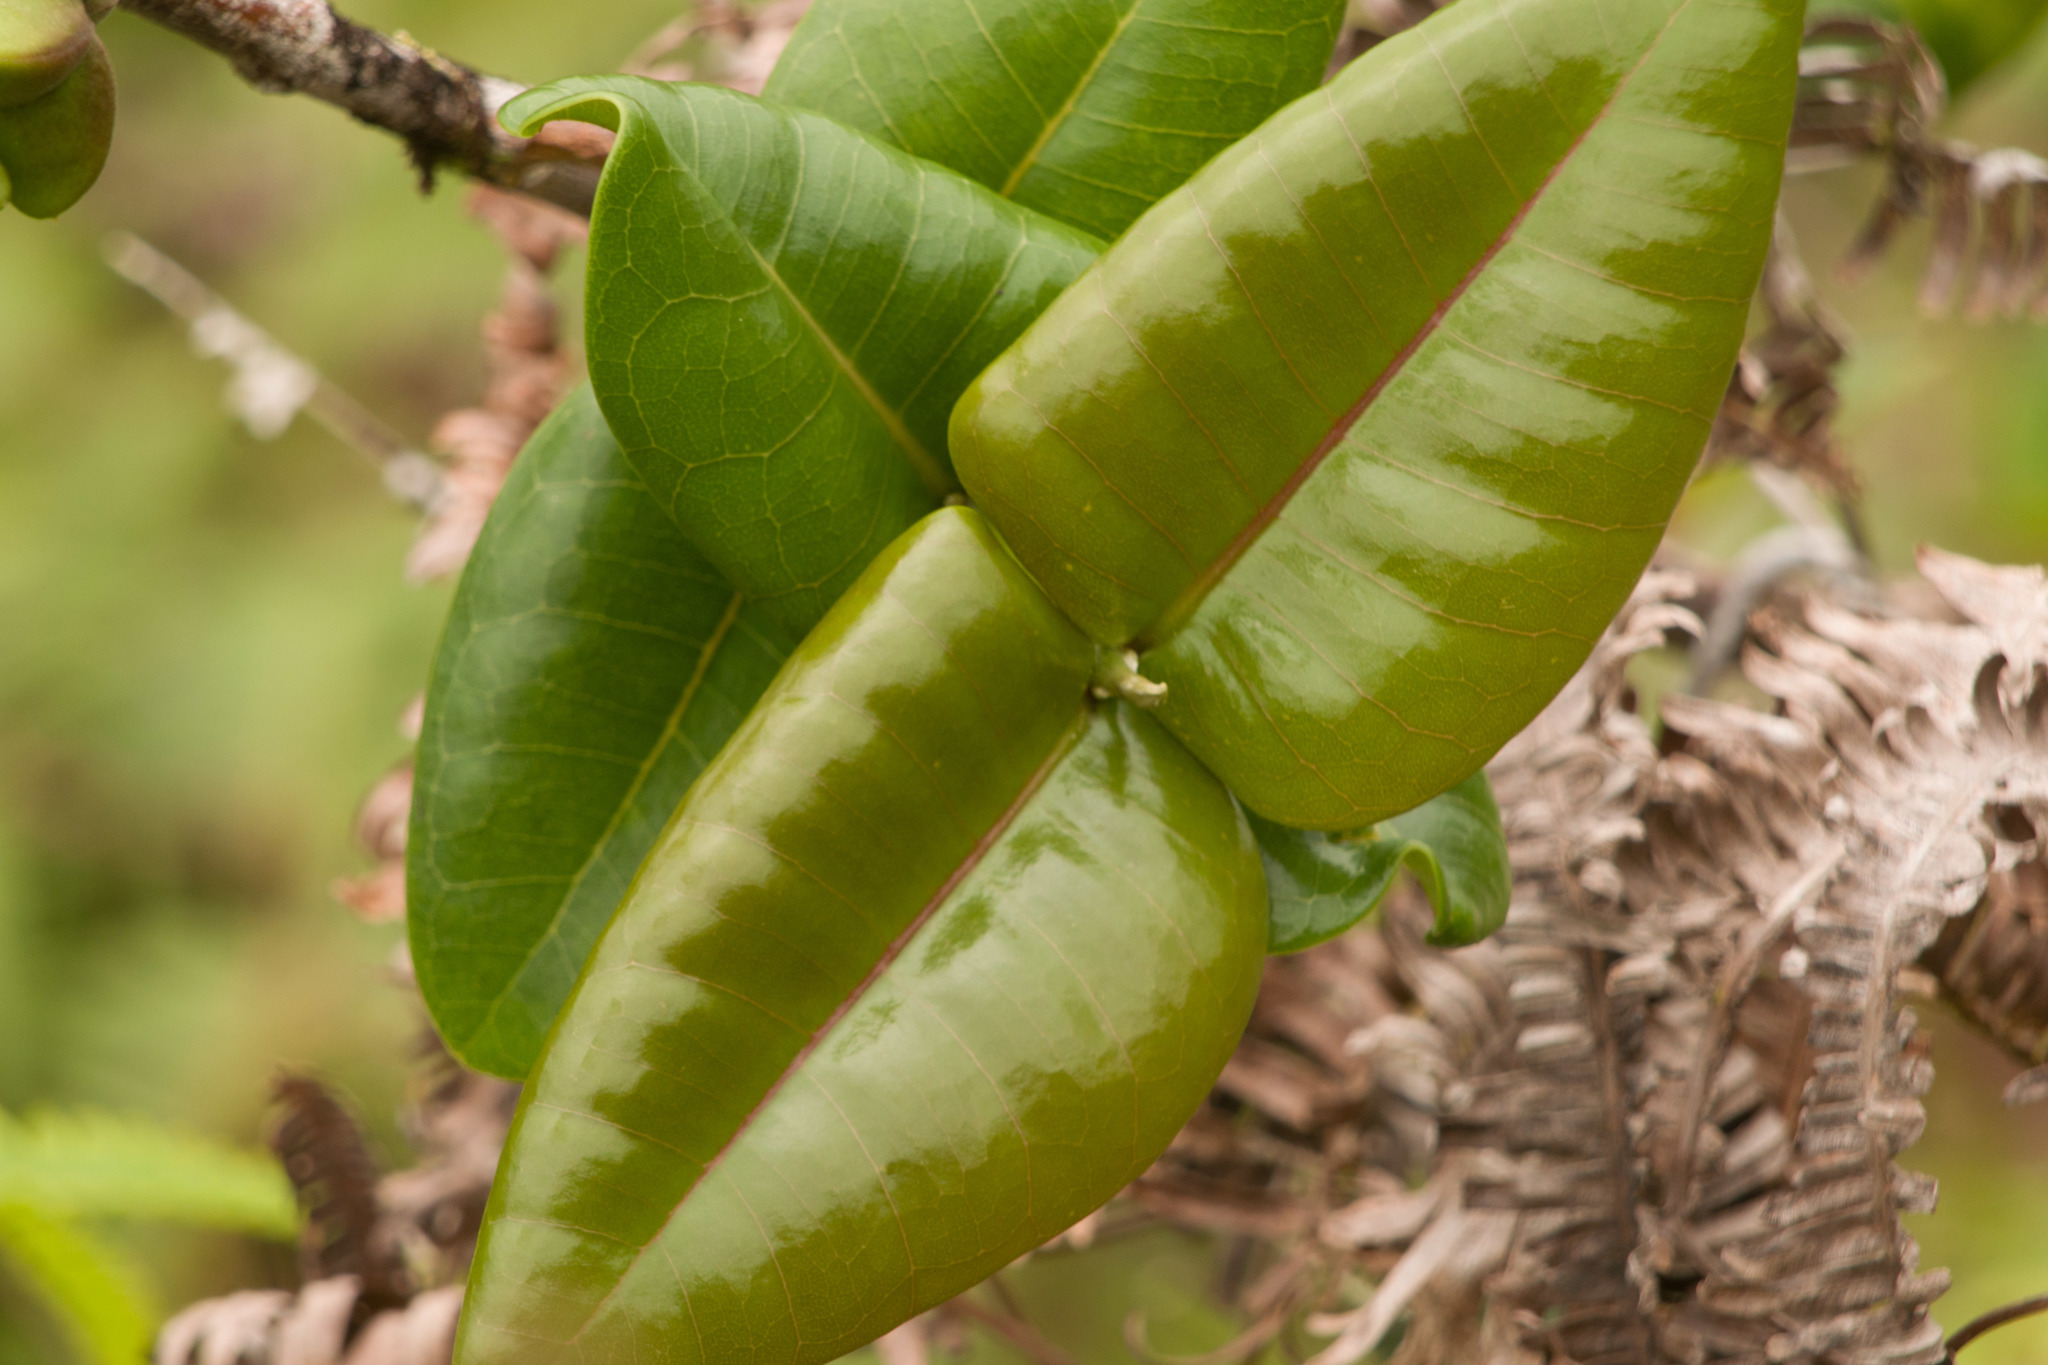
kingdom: Plantae
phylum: Tracheophyta
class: Magnoliopsida
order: Sapindales
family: Rutaceae
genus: Melicope
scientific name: Melicope rotundifolia
